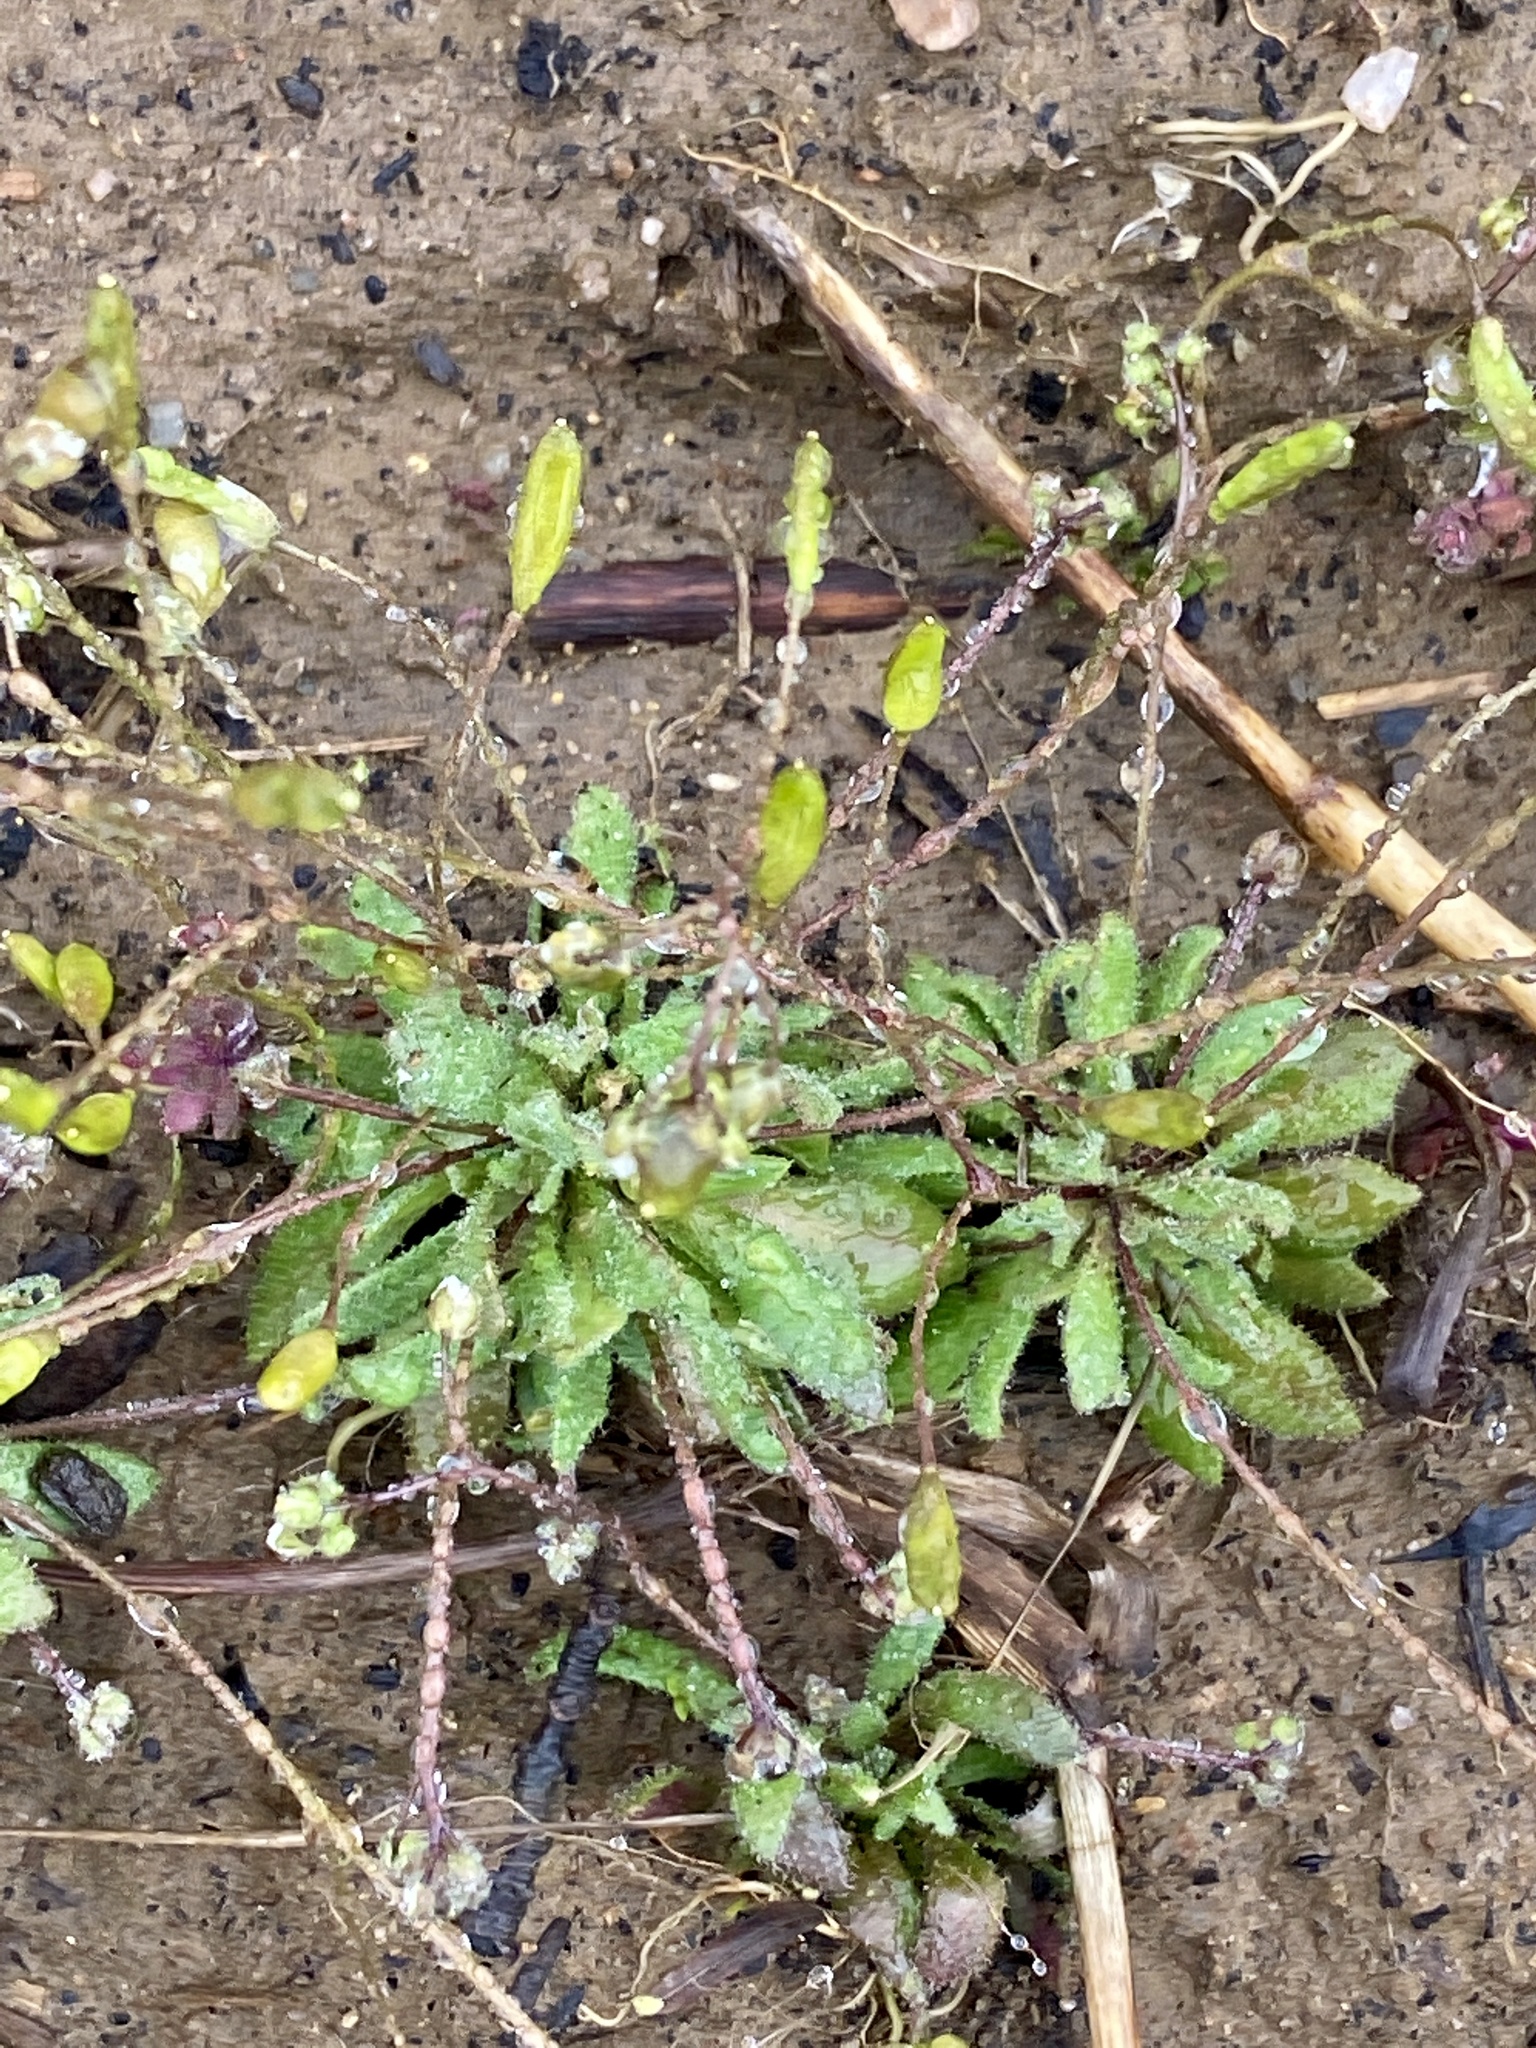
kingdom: Plantae
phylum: Tracheophyta
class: Magnoliopsida
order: Brassicales
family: Brassicaceae
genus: Draba
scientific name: Draba verna
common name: Spring draba
